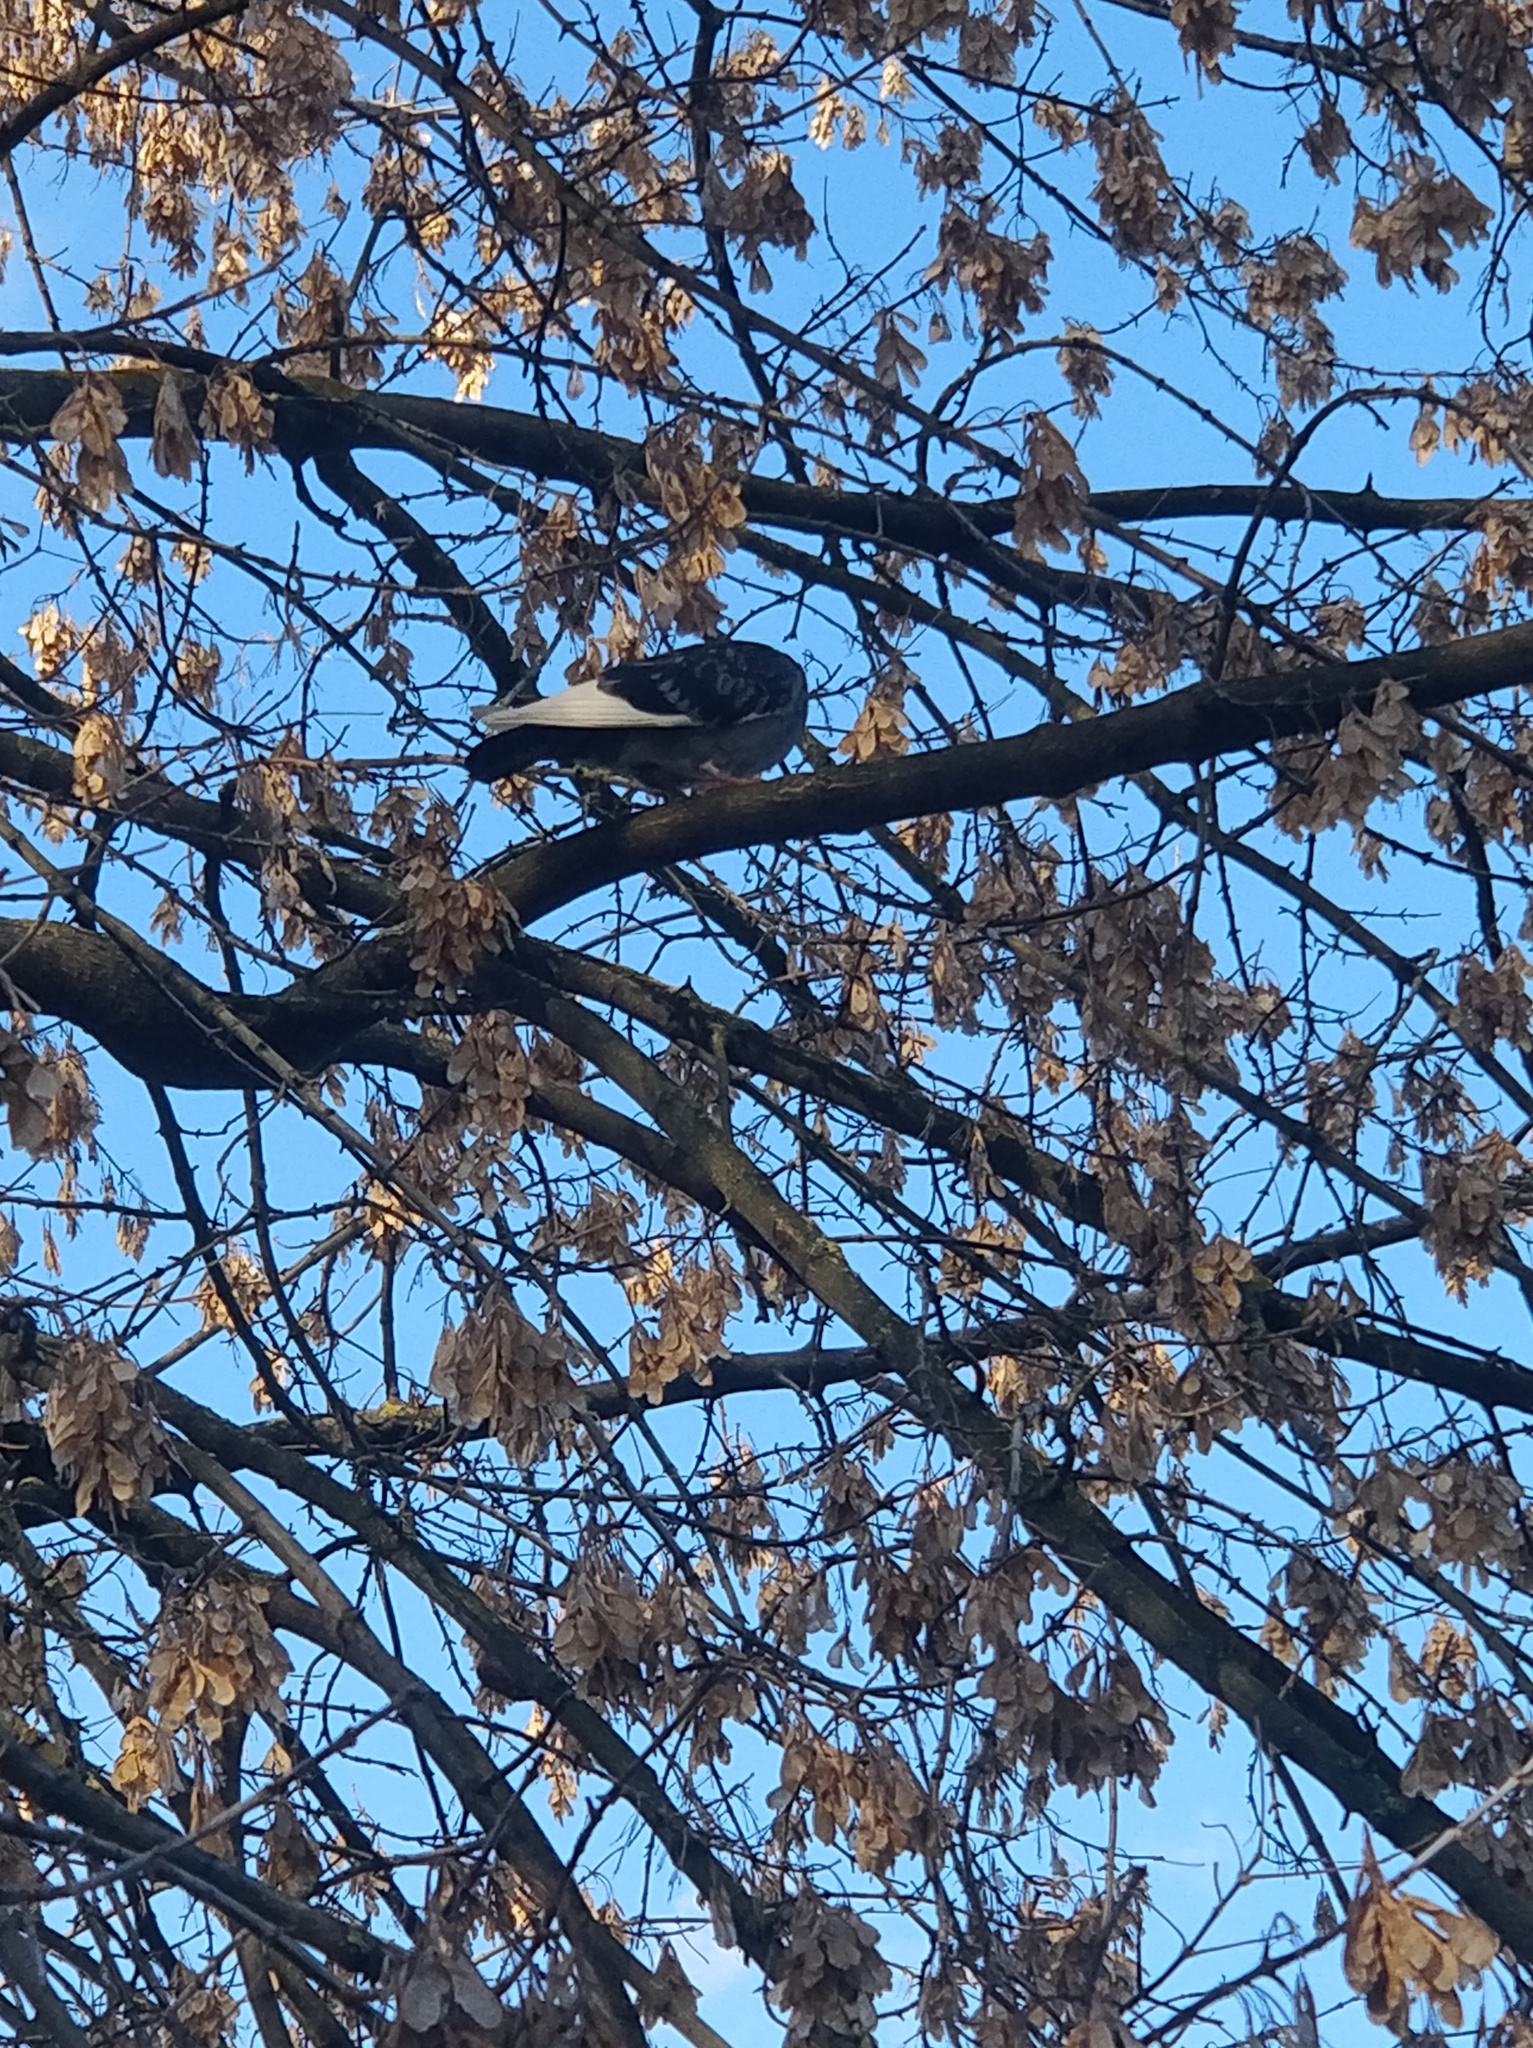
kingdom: Animalia
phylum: Chordata
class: Aves
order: Columbiformes
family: Columbidae
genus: Columba
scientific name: Columba livia
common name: Rock pigeon
